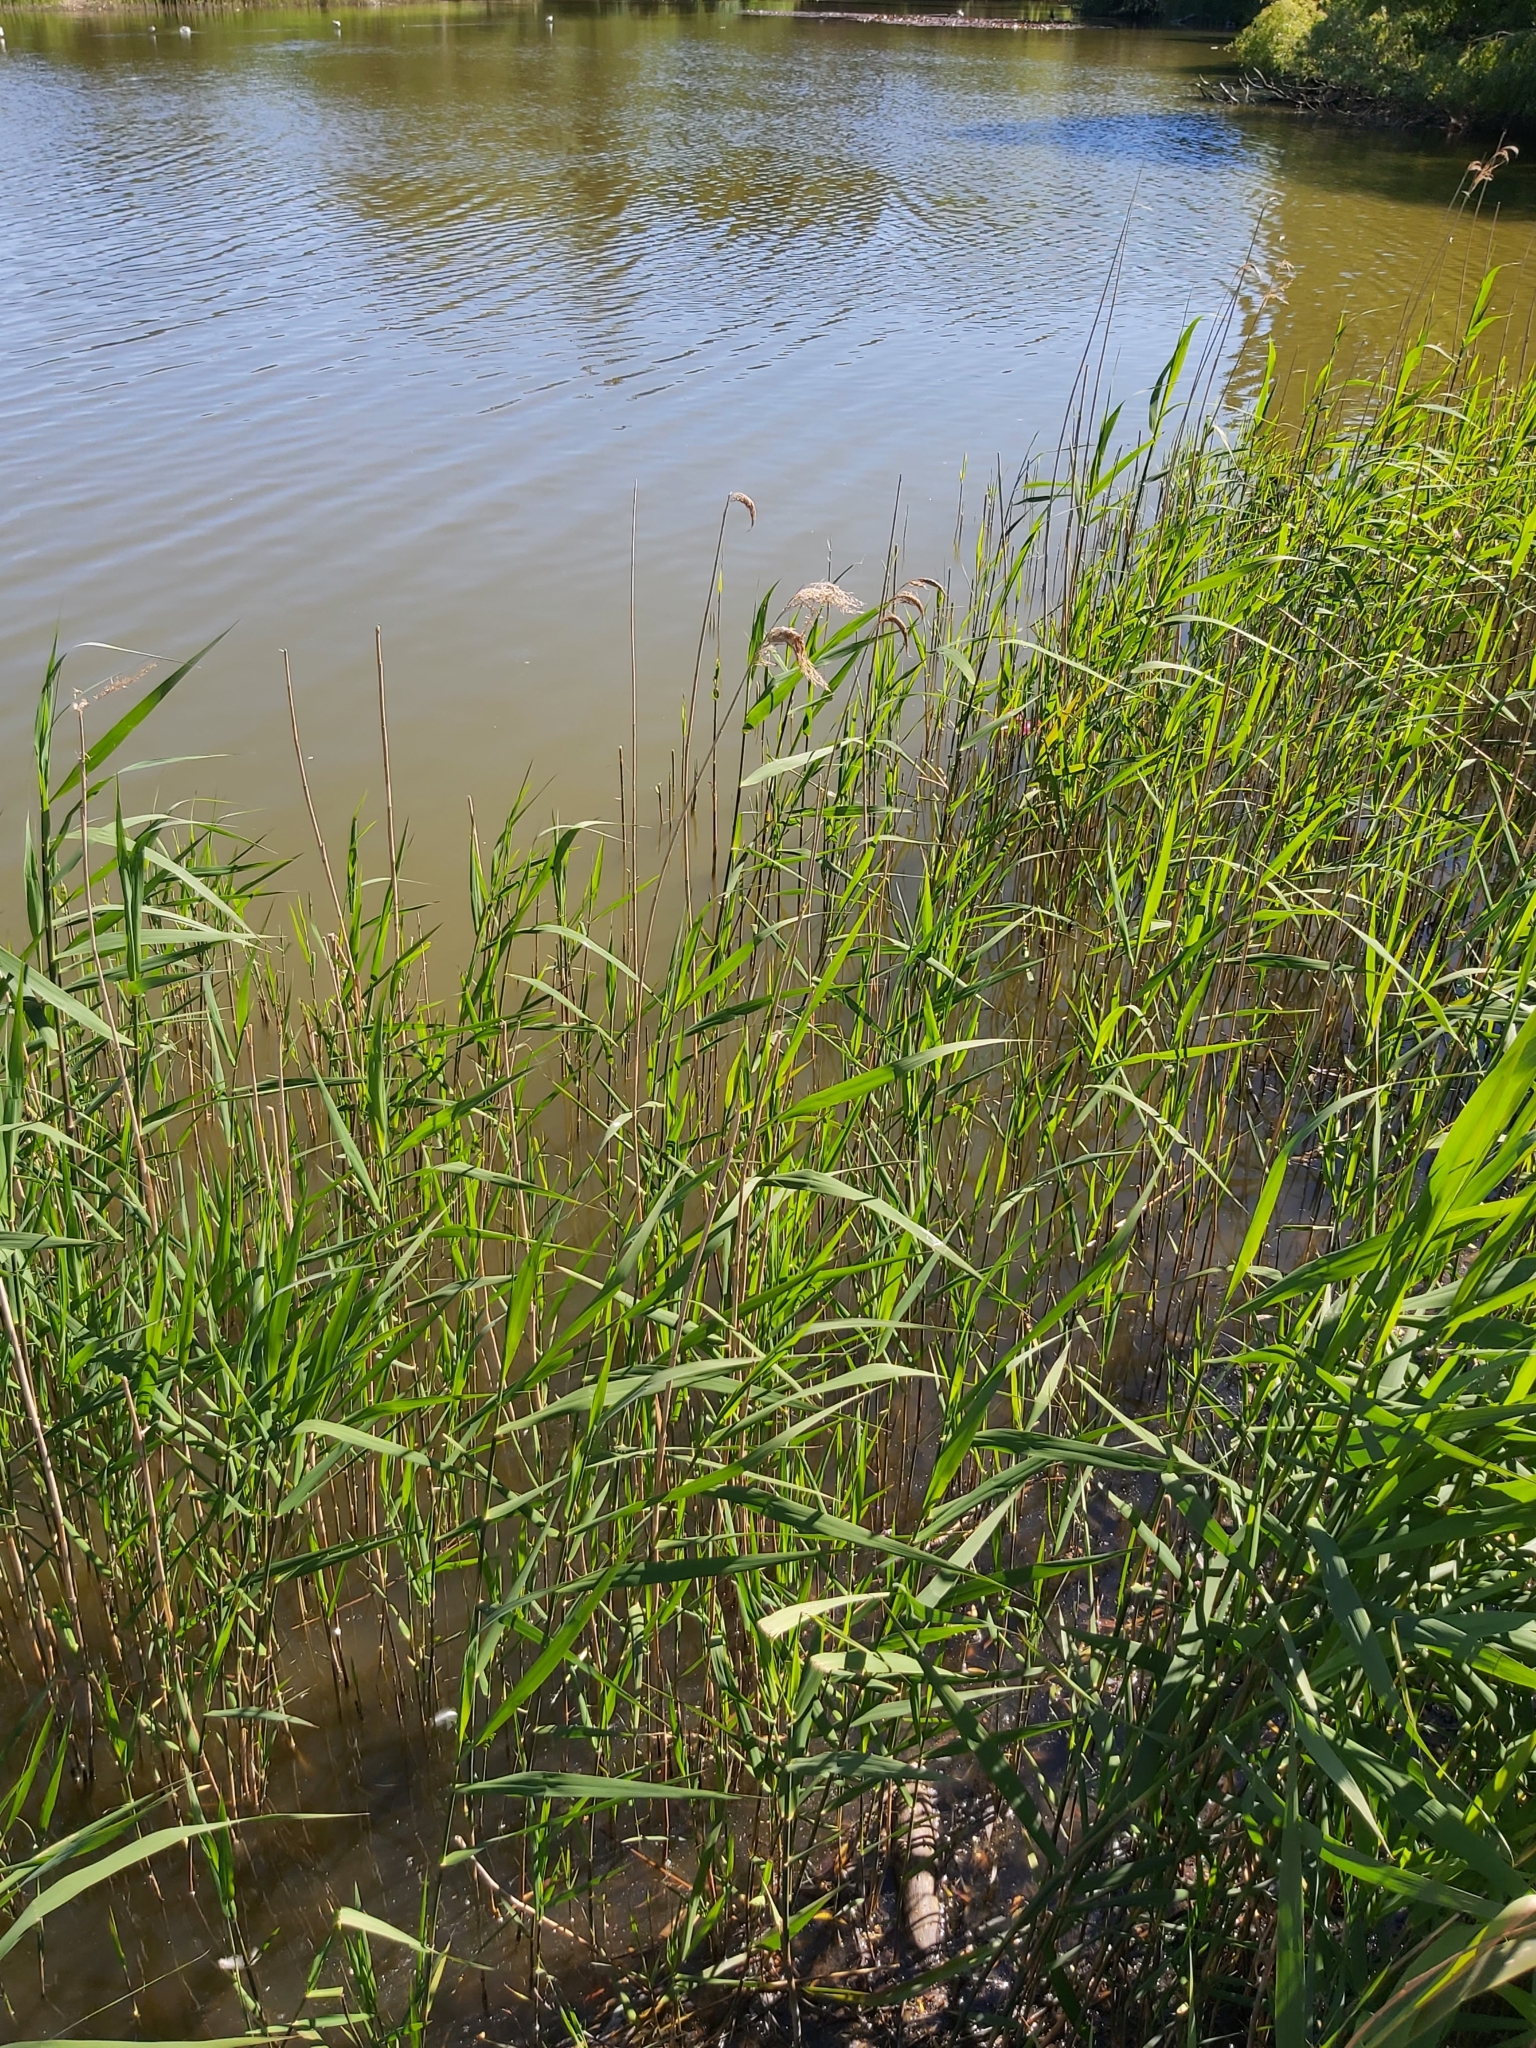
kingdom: Plantae
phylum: Tracheophyta
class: Liliopsida
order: Poales
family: Poaceae
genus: Phragmites
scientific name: Phragmites australis
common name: Common reed
